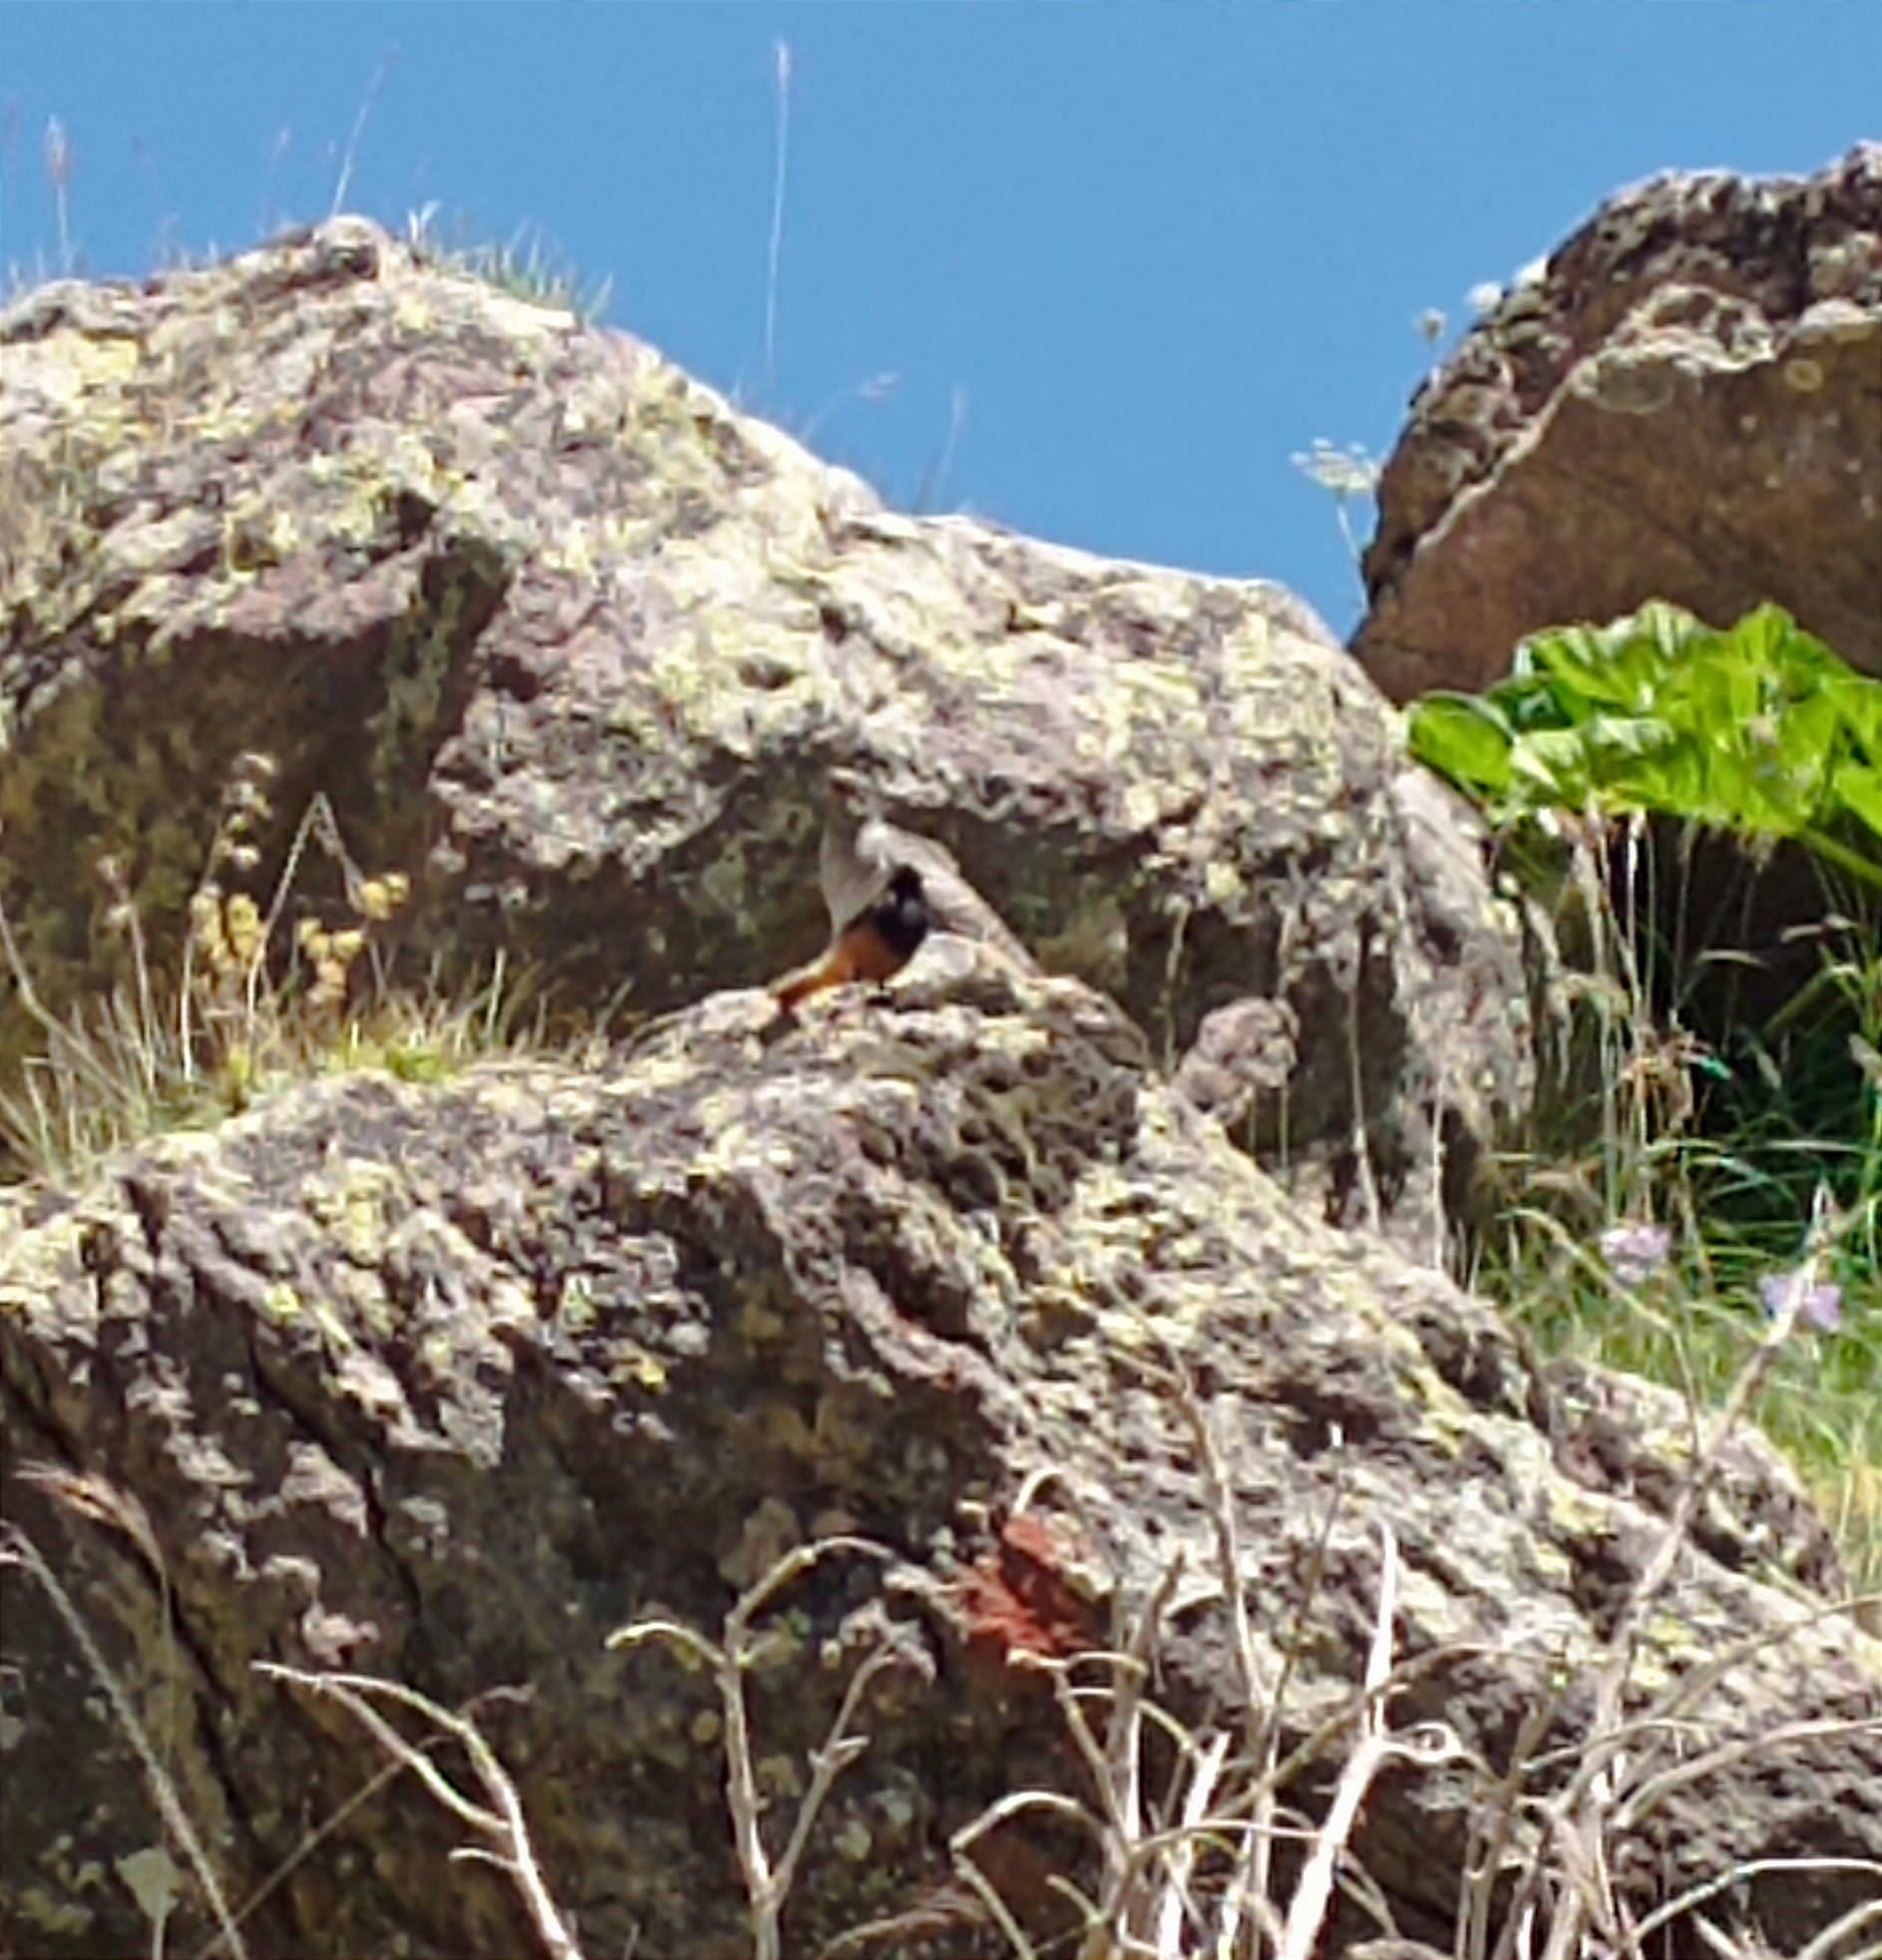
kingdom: Animalia
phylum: Chordata
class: Aves
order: Passeriformes
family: Muscicapidae
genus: Phoenicurus
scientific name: Phoenicurus ochruros
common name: Black redstart
